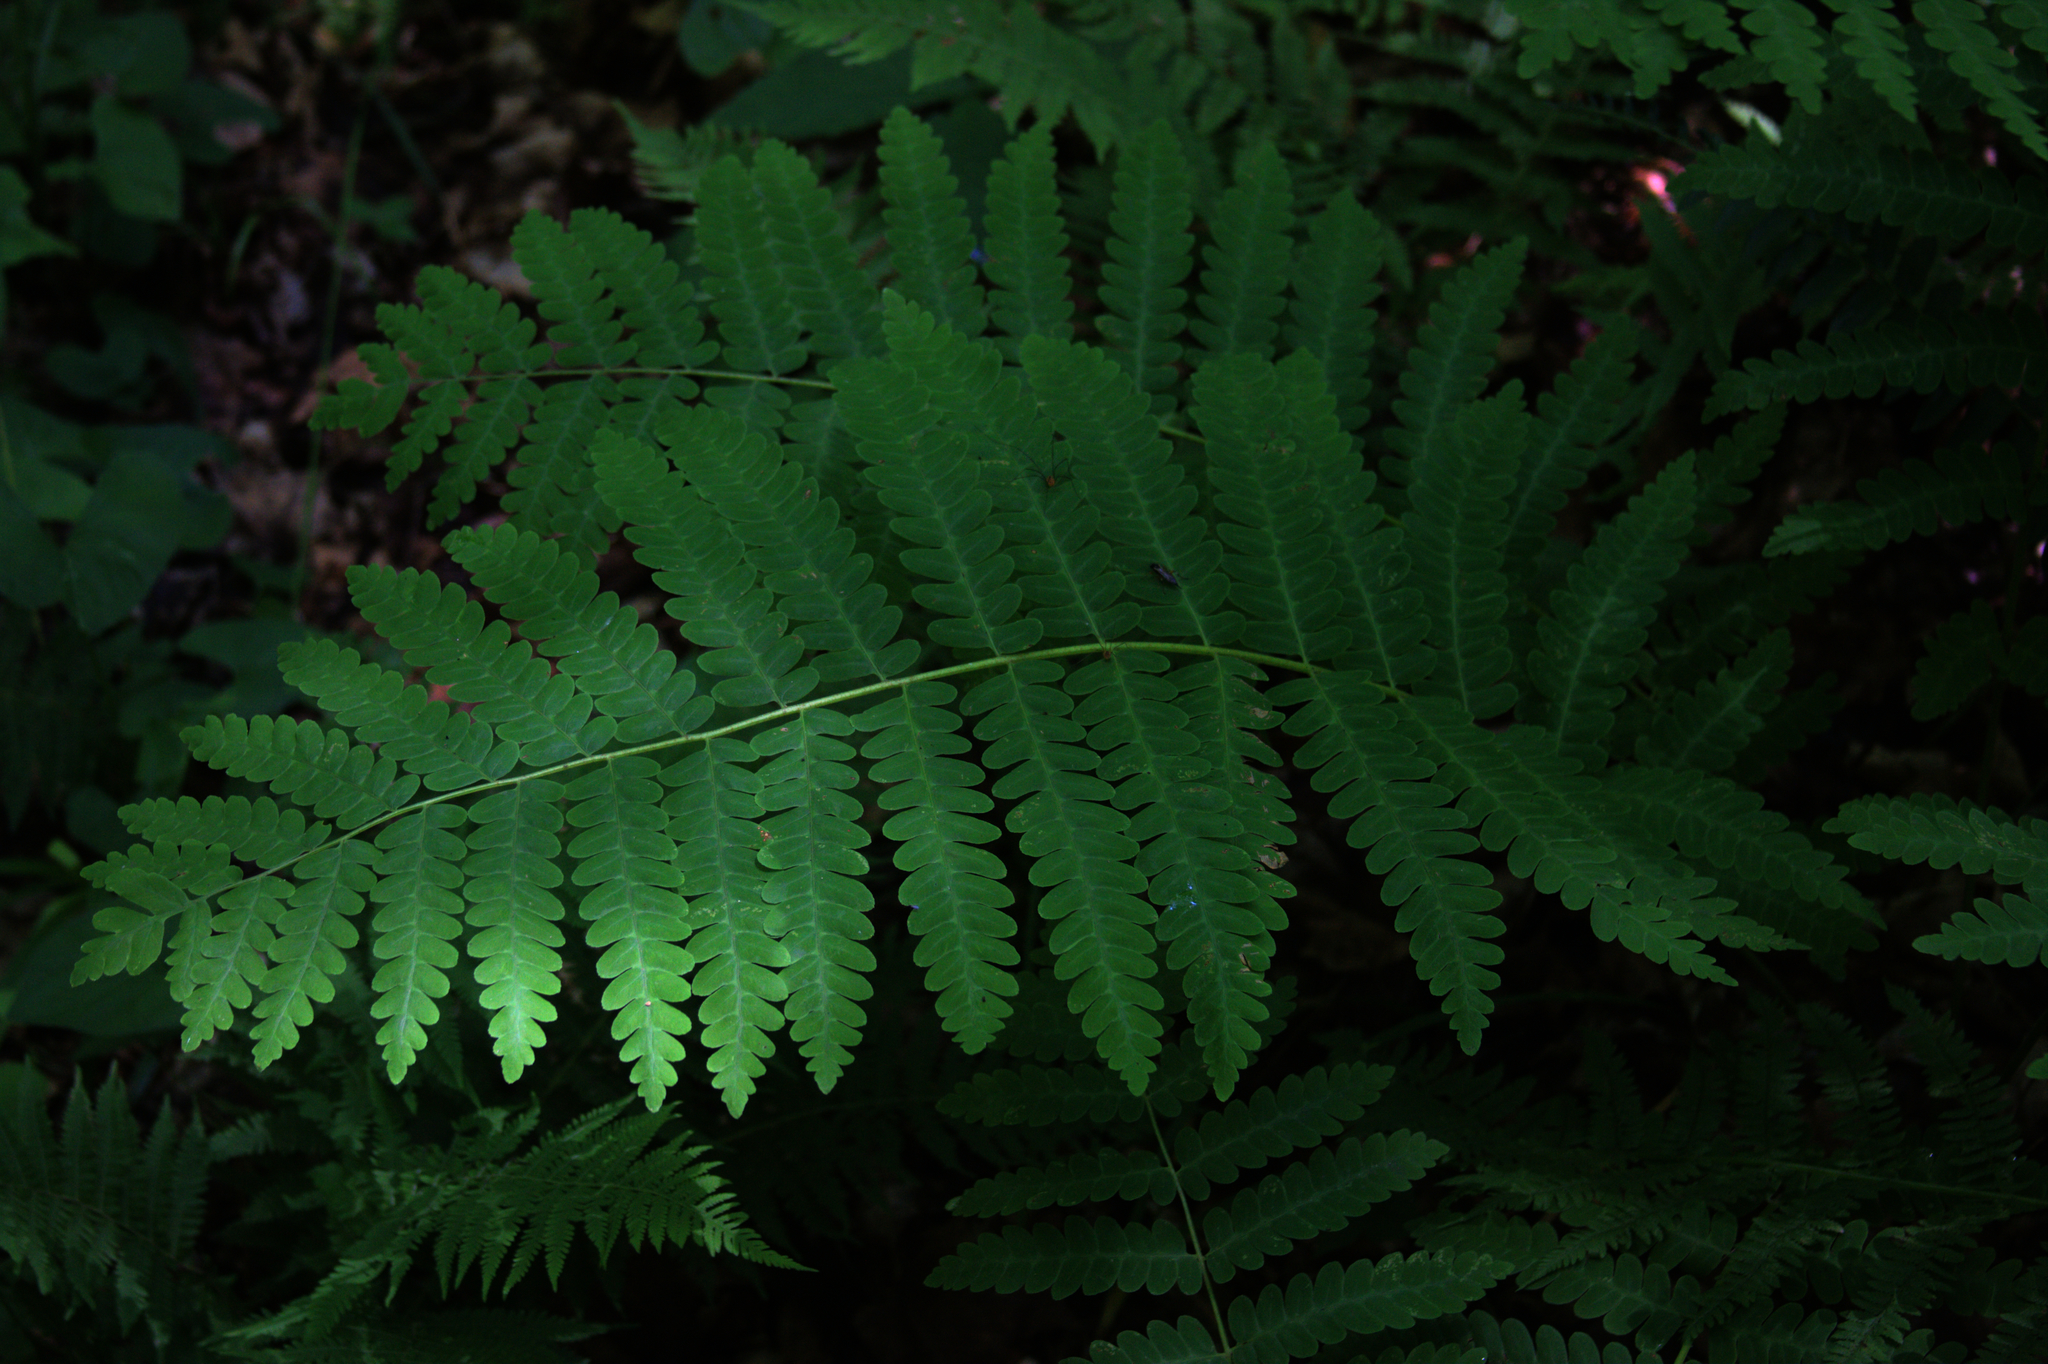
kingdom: Plantae
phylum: Tracheophyta
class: Polypodiopsida
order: Osmundales
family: Osmundaceae
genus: Claytosmunda
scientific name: Claytosmunda claytoniana
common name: Clayton's fern
